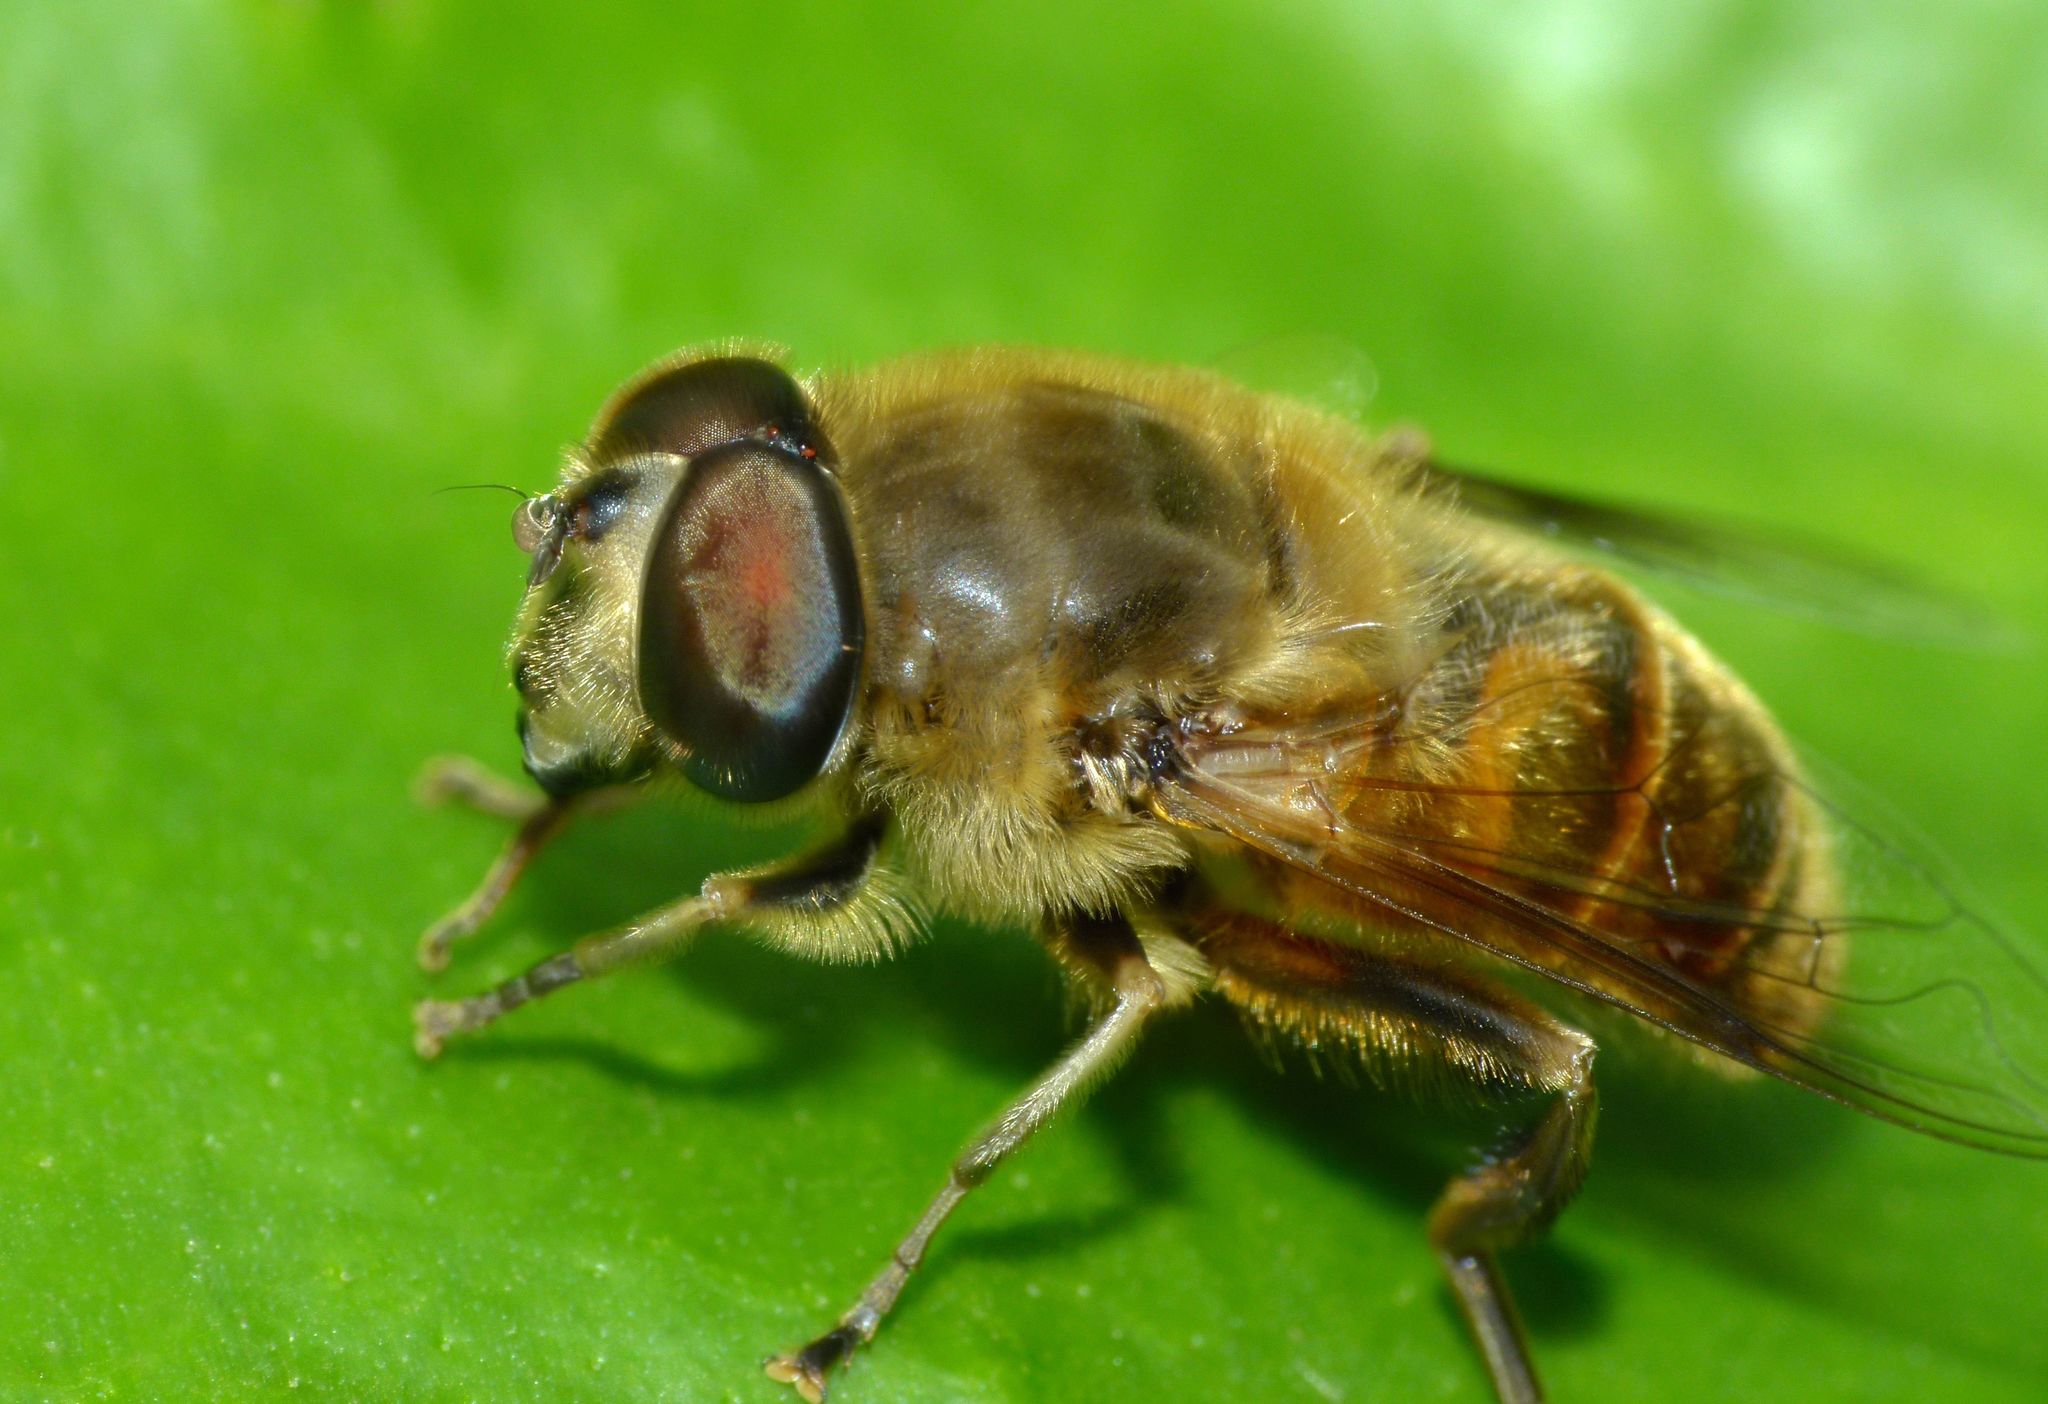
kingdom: Animalia
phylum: Arthropoda
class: Insecta
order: Diptera
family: Syrphidae
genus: Eristalis
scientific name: Eristalis tenax
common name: Drone fly
